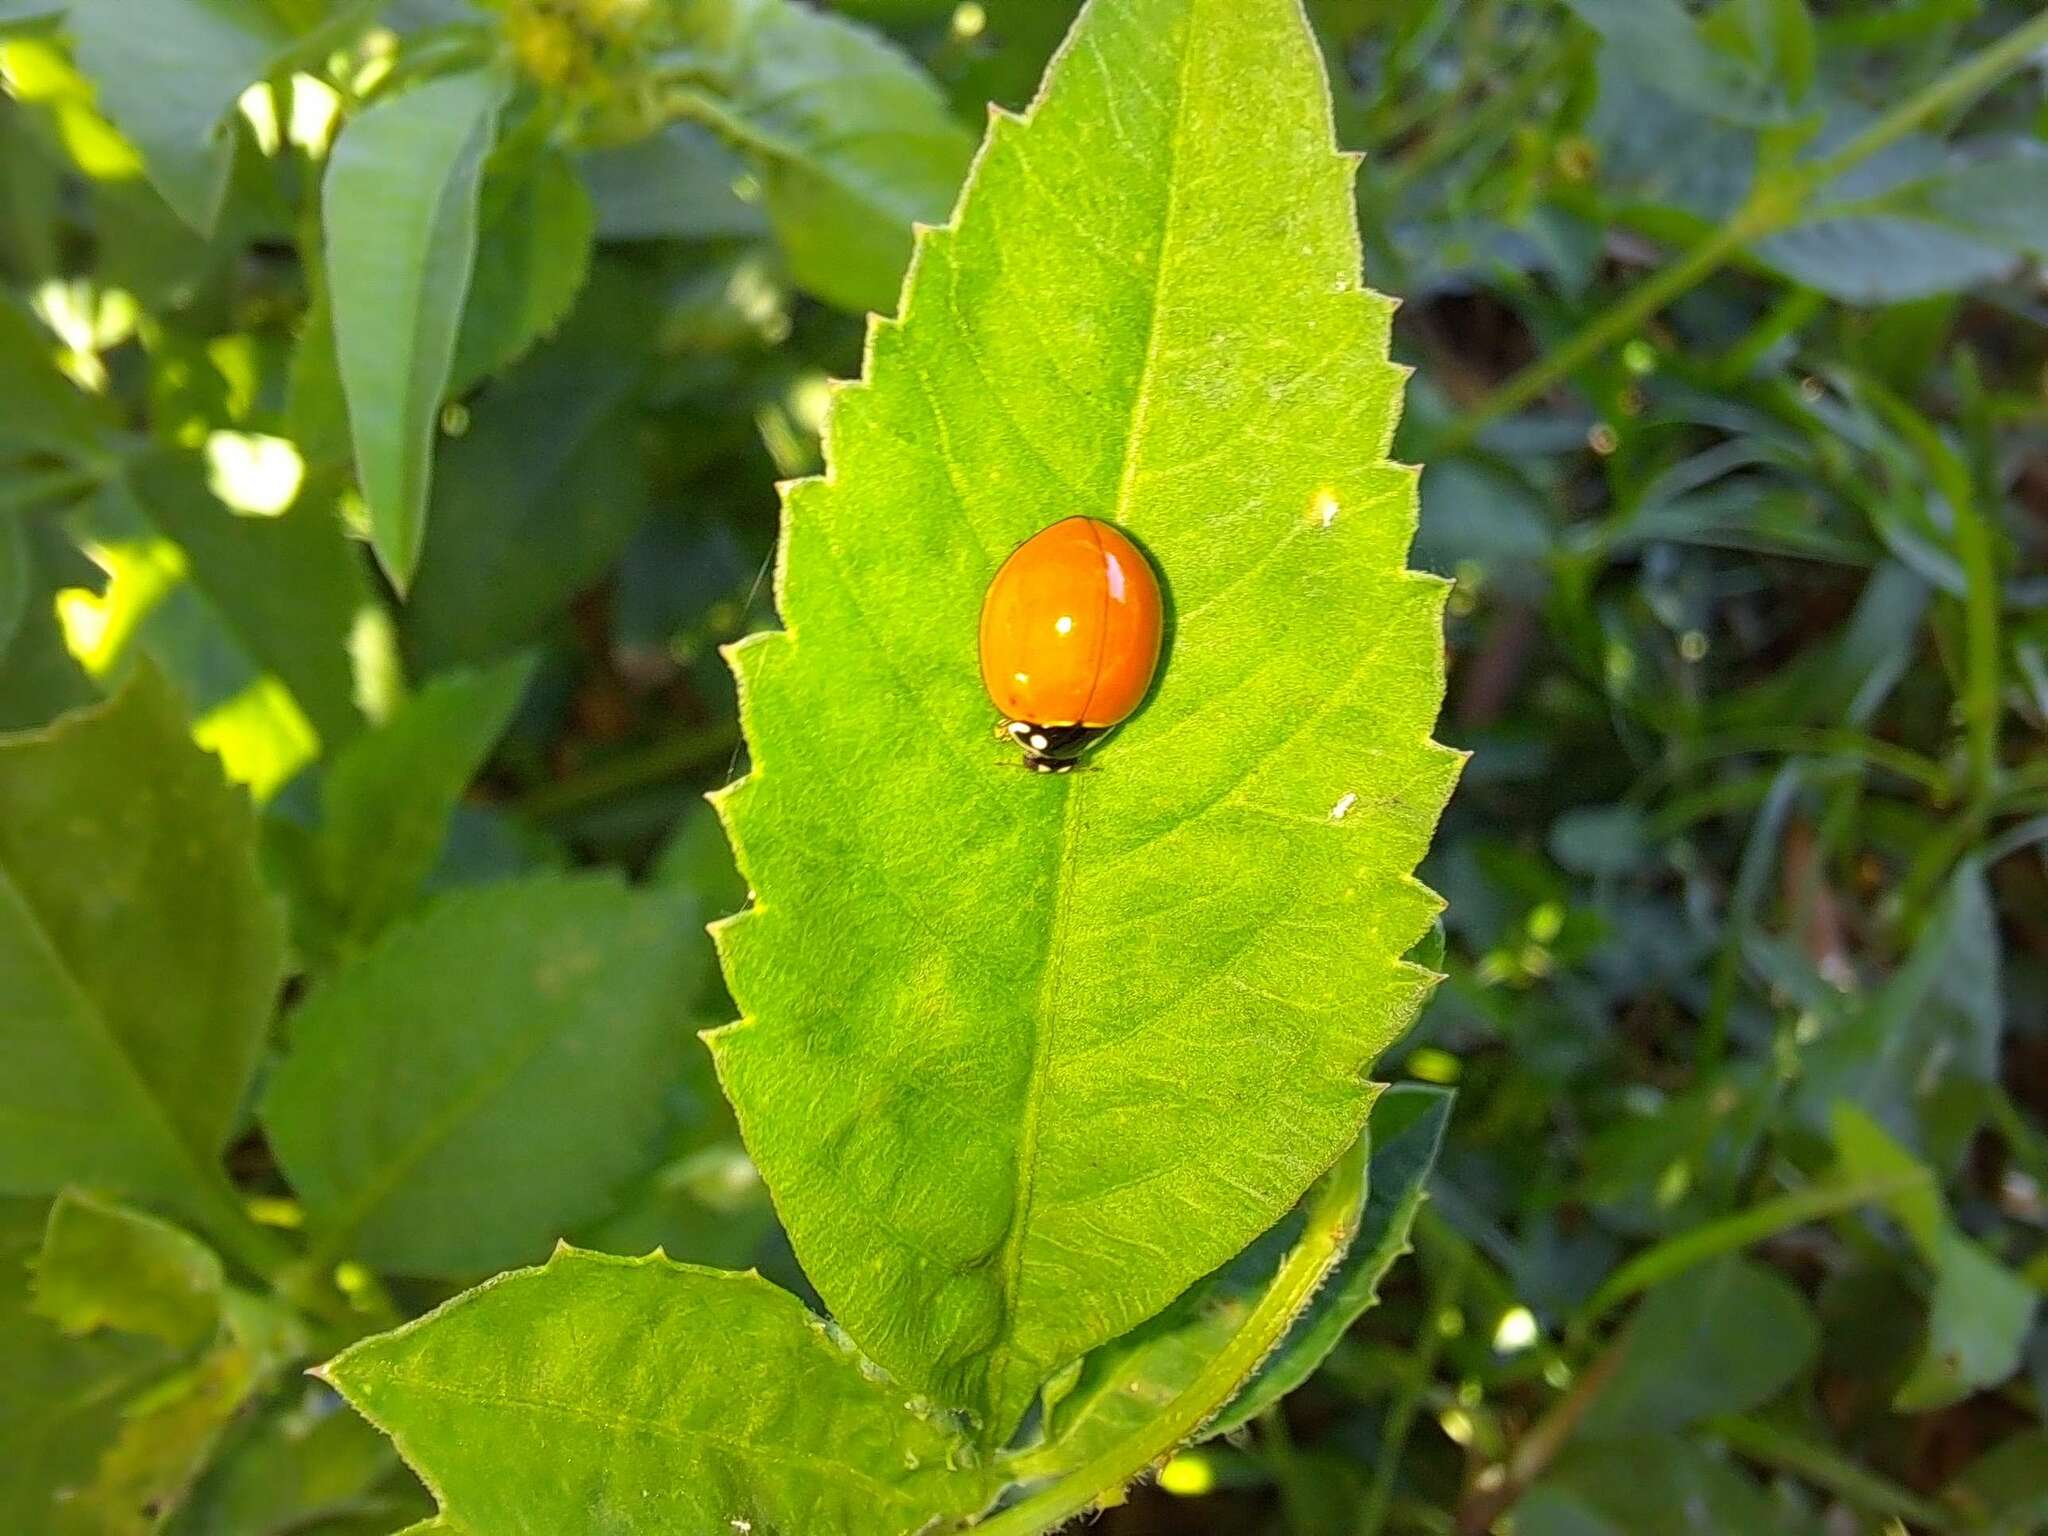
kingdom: Animalia
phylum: Arthropoda
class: Insecta
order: Coleoptera
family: Coccinellidae
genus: Cycloneda
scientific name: Cycloneda sanguinea
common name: Ladybird beetle
